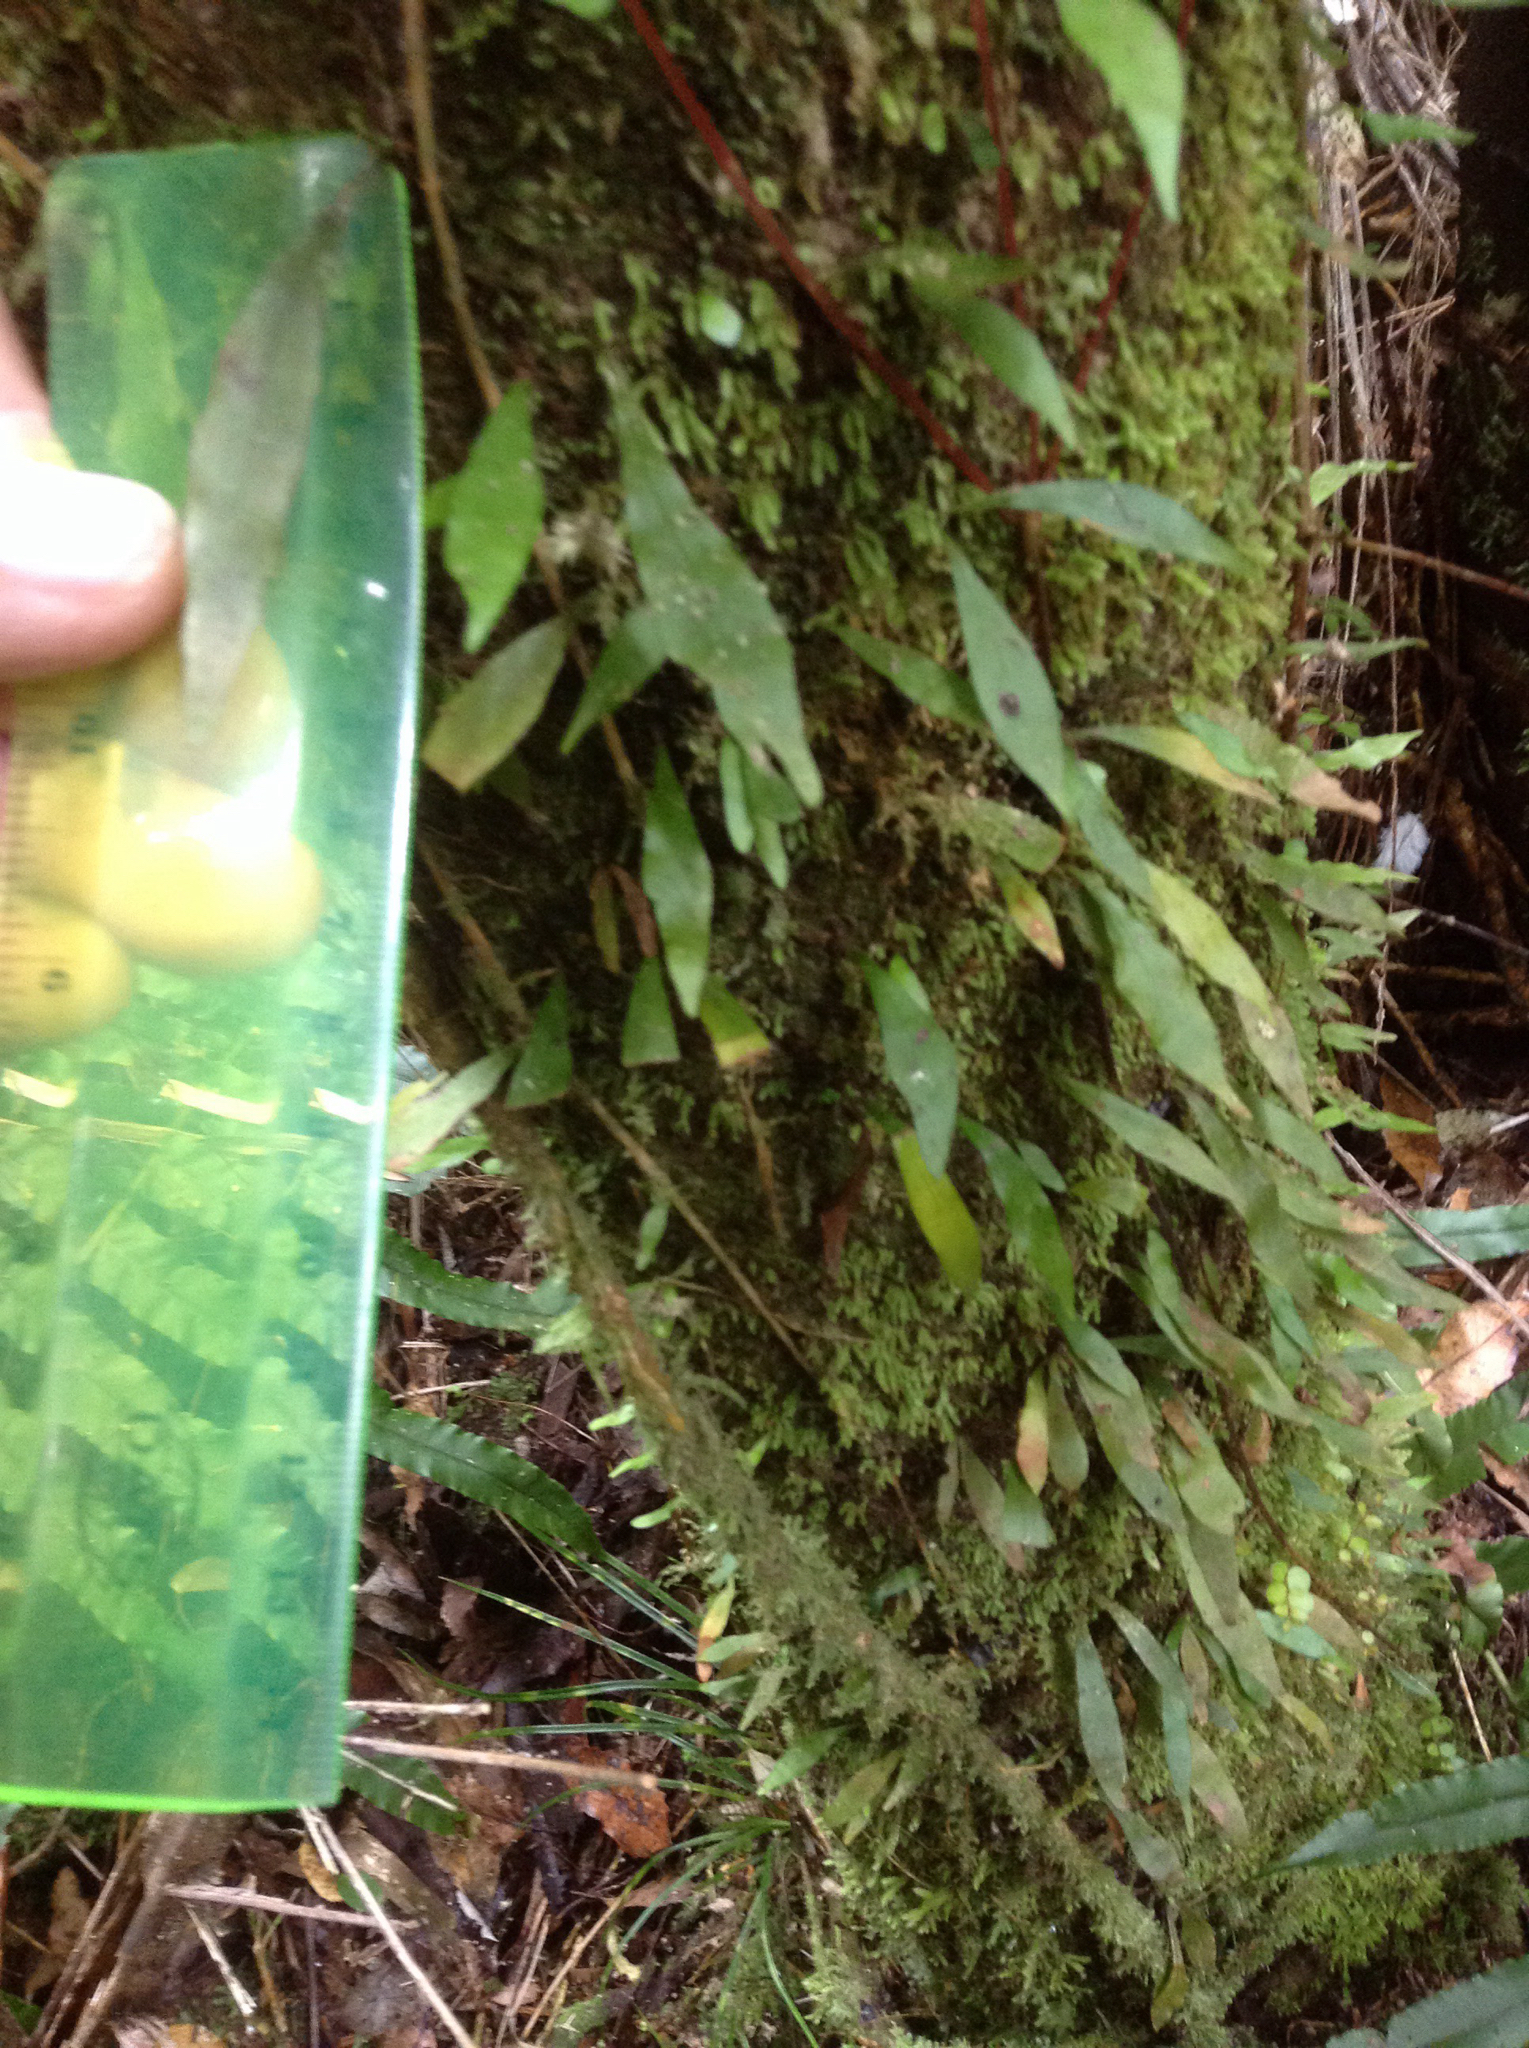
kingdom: Plantae
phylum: Tracheophyta
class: Polypodiopsida
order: Polypodiales
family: Polypodiaceae
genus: Loxogramme
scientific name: Loxogramme dictyopteris
